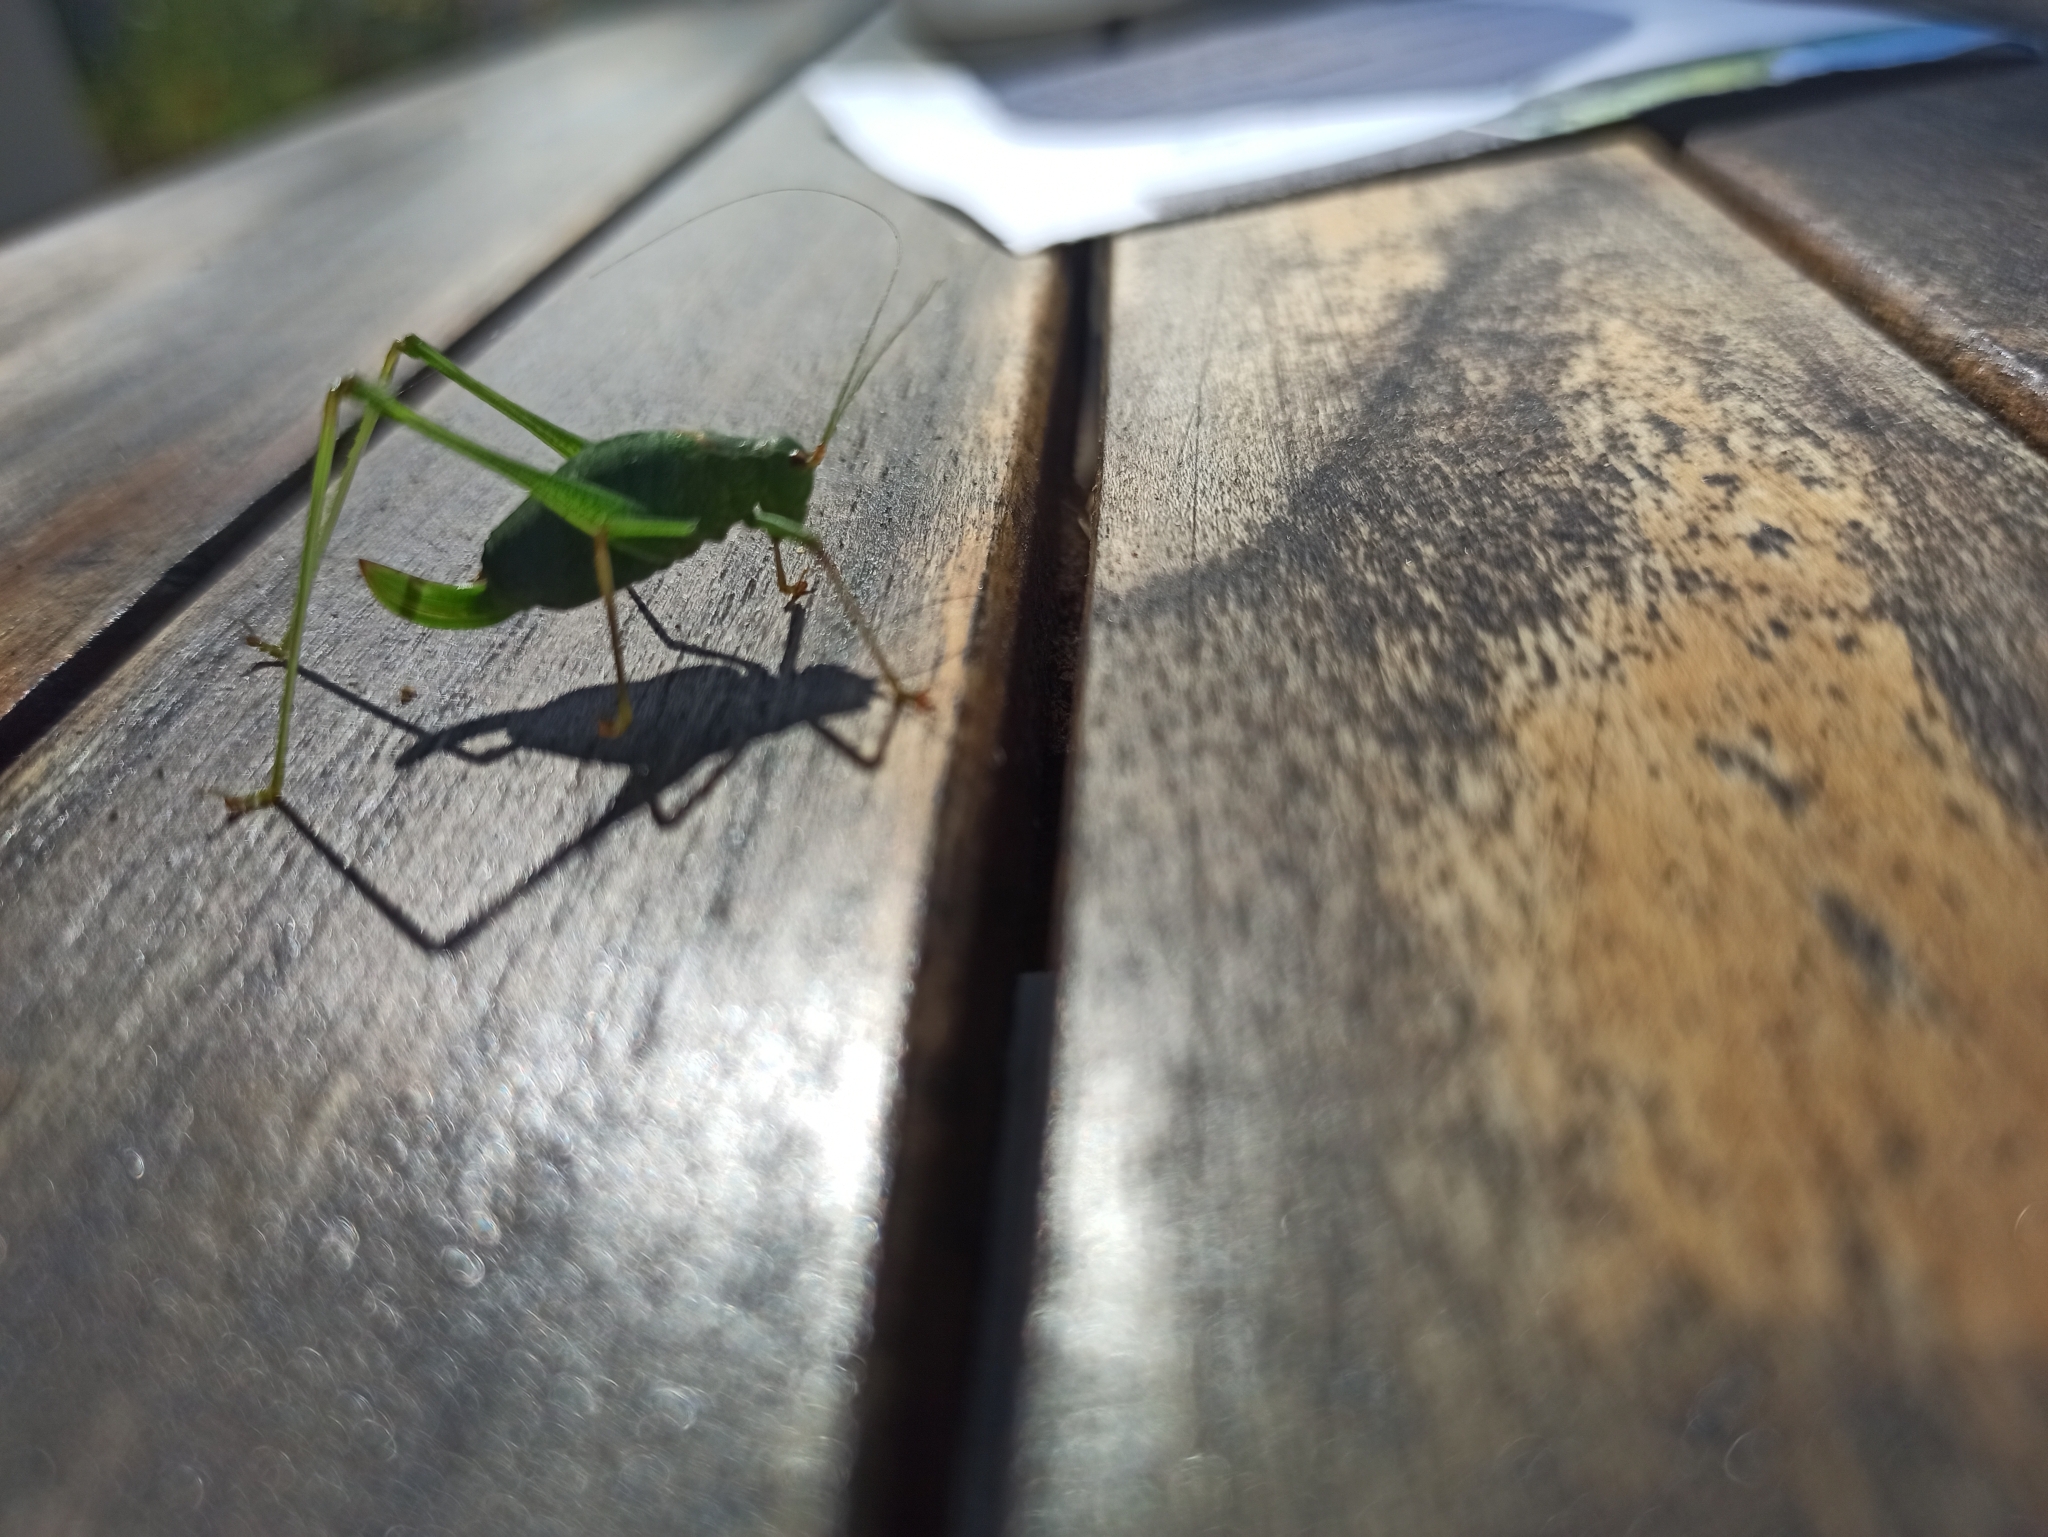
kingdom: Animalia
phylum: Arthropoda
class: Insecta
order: Orthoptera
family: Tettigoniidae
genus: Leptophyes
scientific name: Leptophyes punctatissima
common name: Speckled bush-cricket
